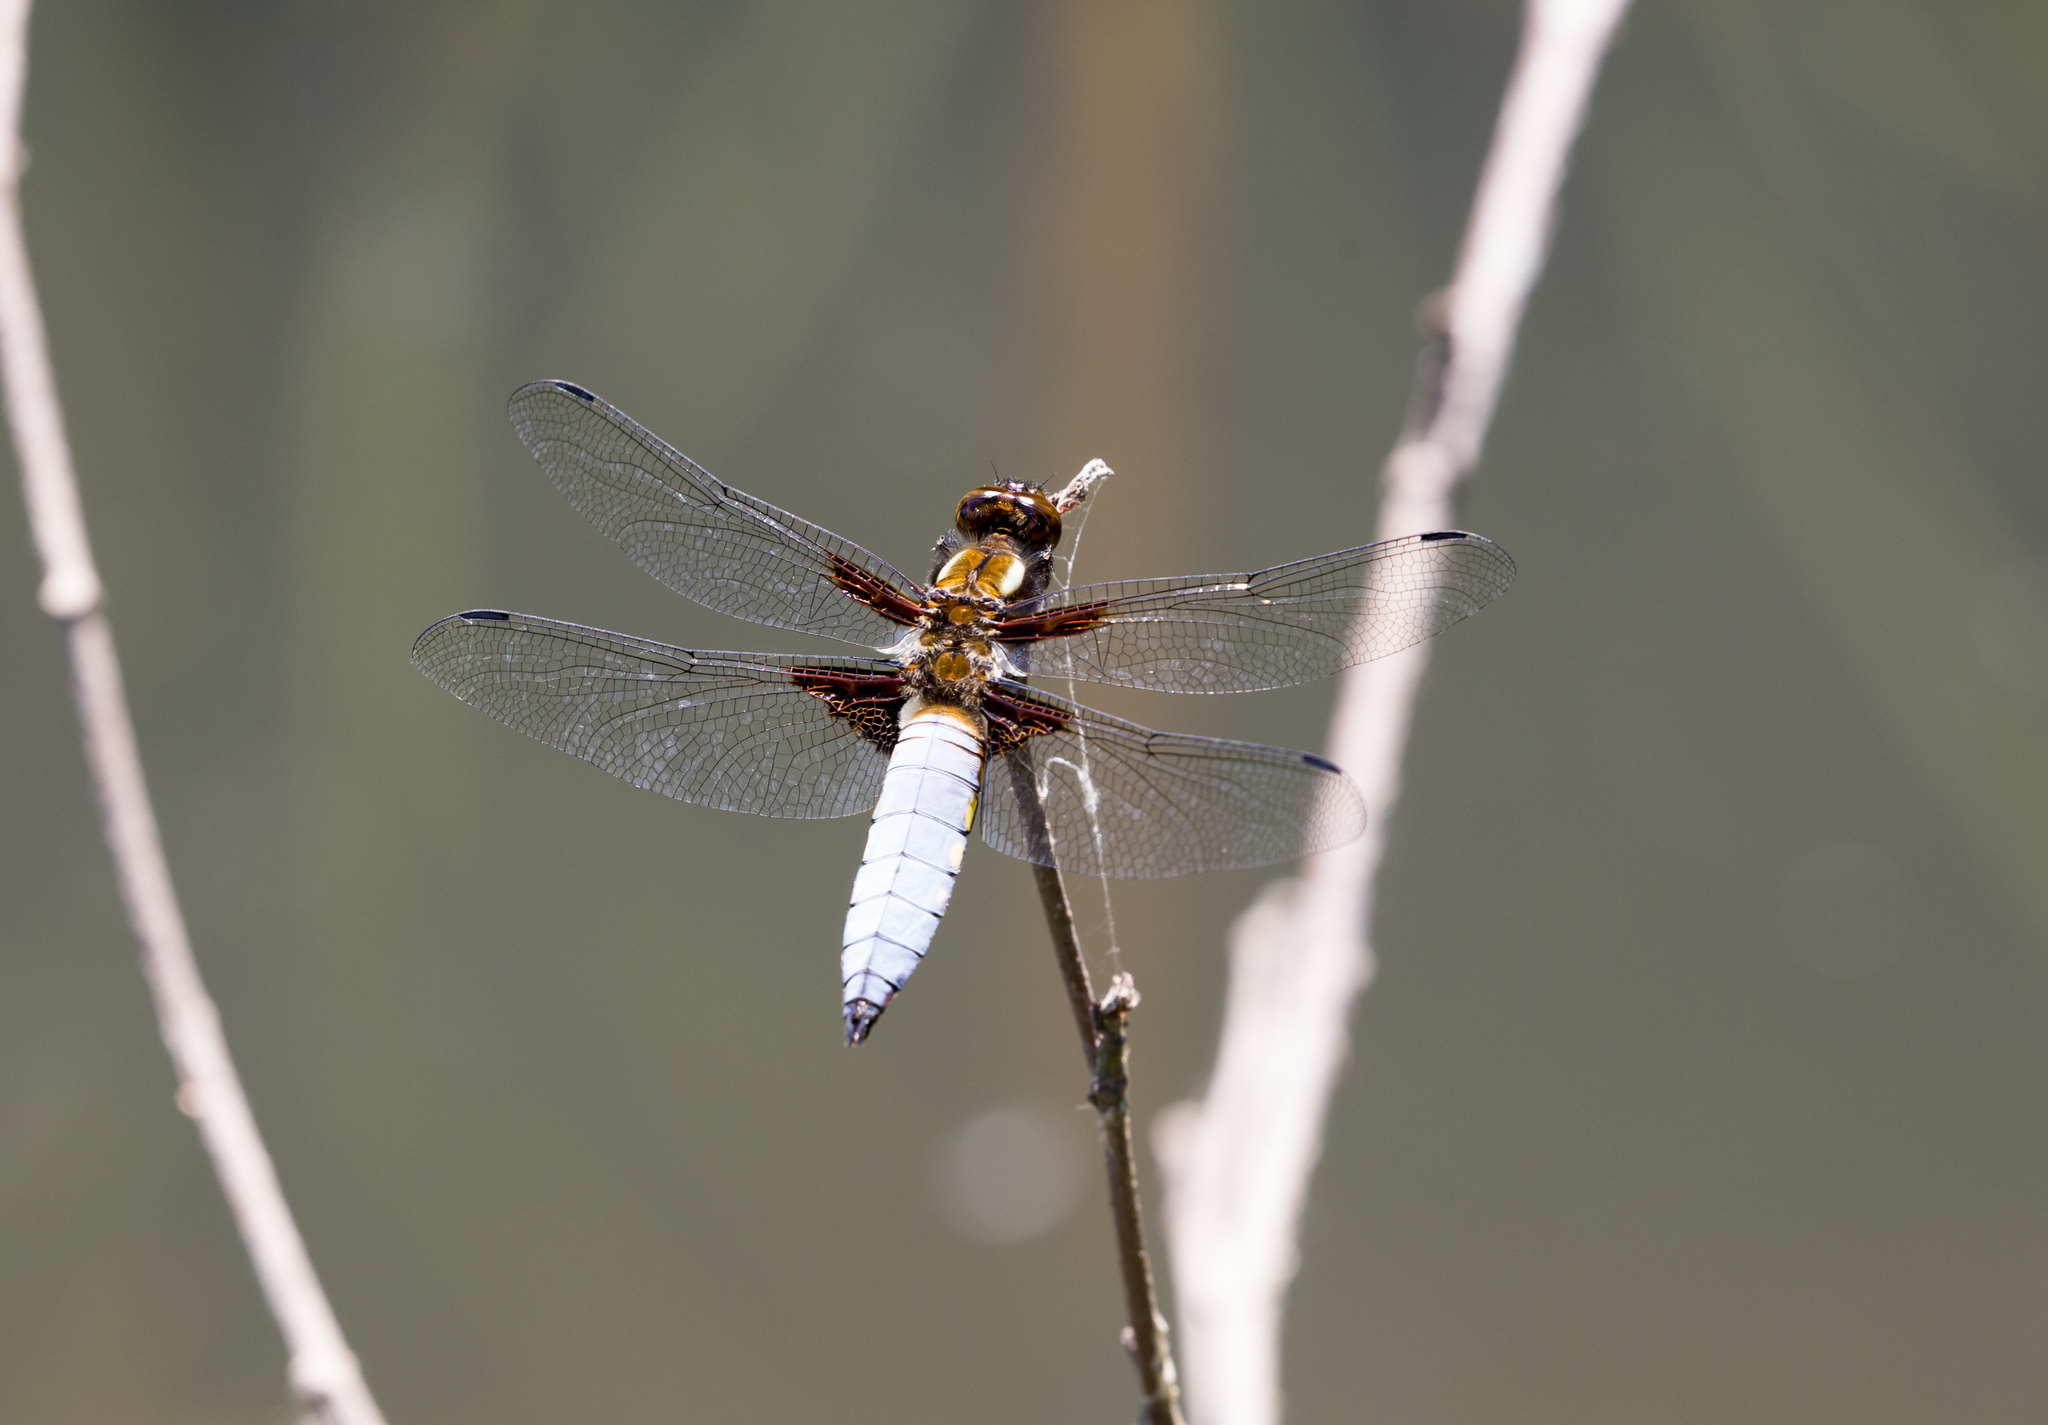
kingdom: Animalia
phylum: Arthropoda
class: Insecta
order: Odonata
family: Libellulidae
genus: Libellula
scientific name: Libellula depressa
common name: Broad-bodied chaser
